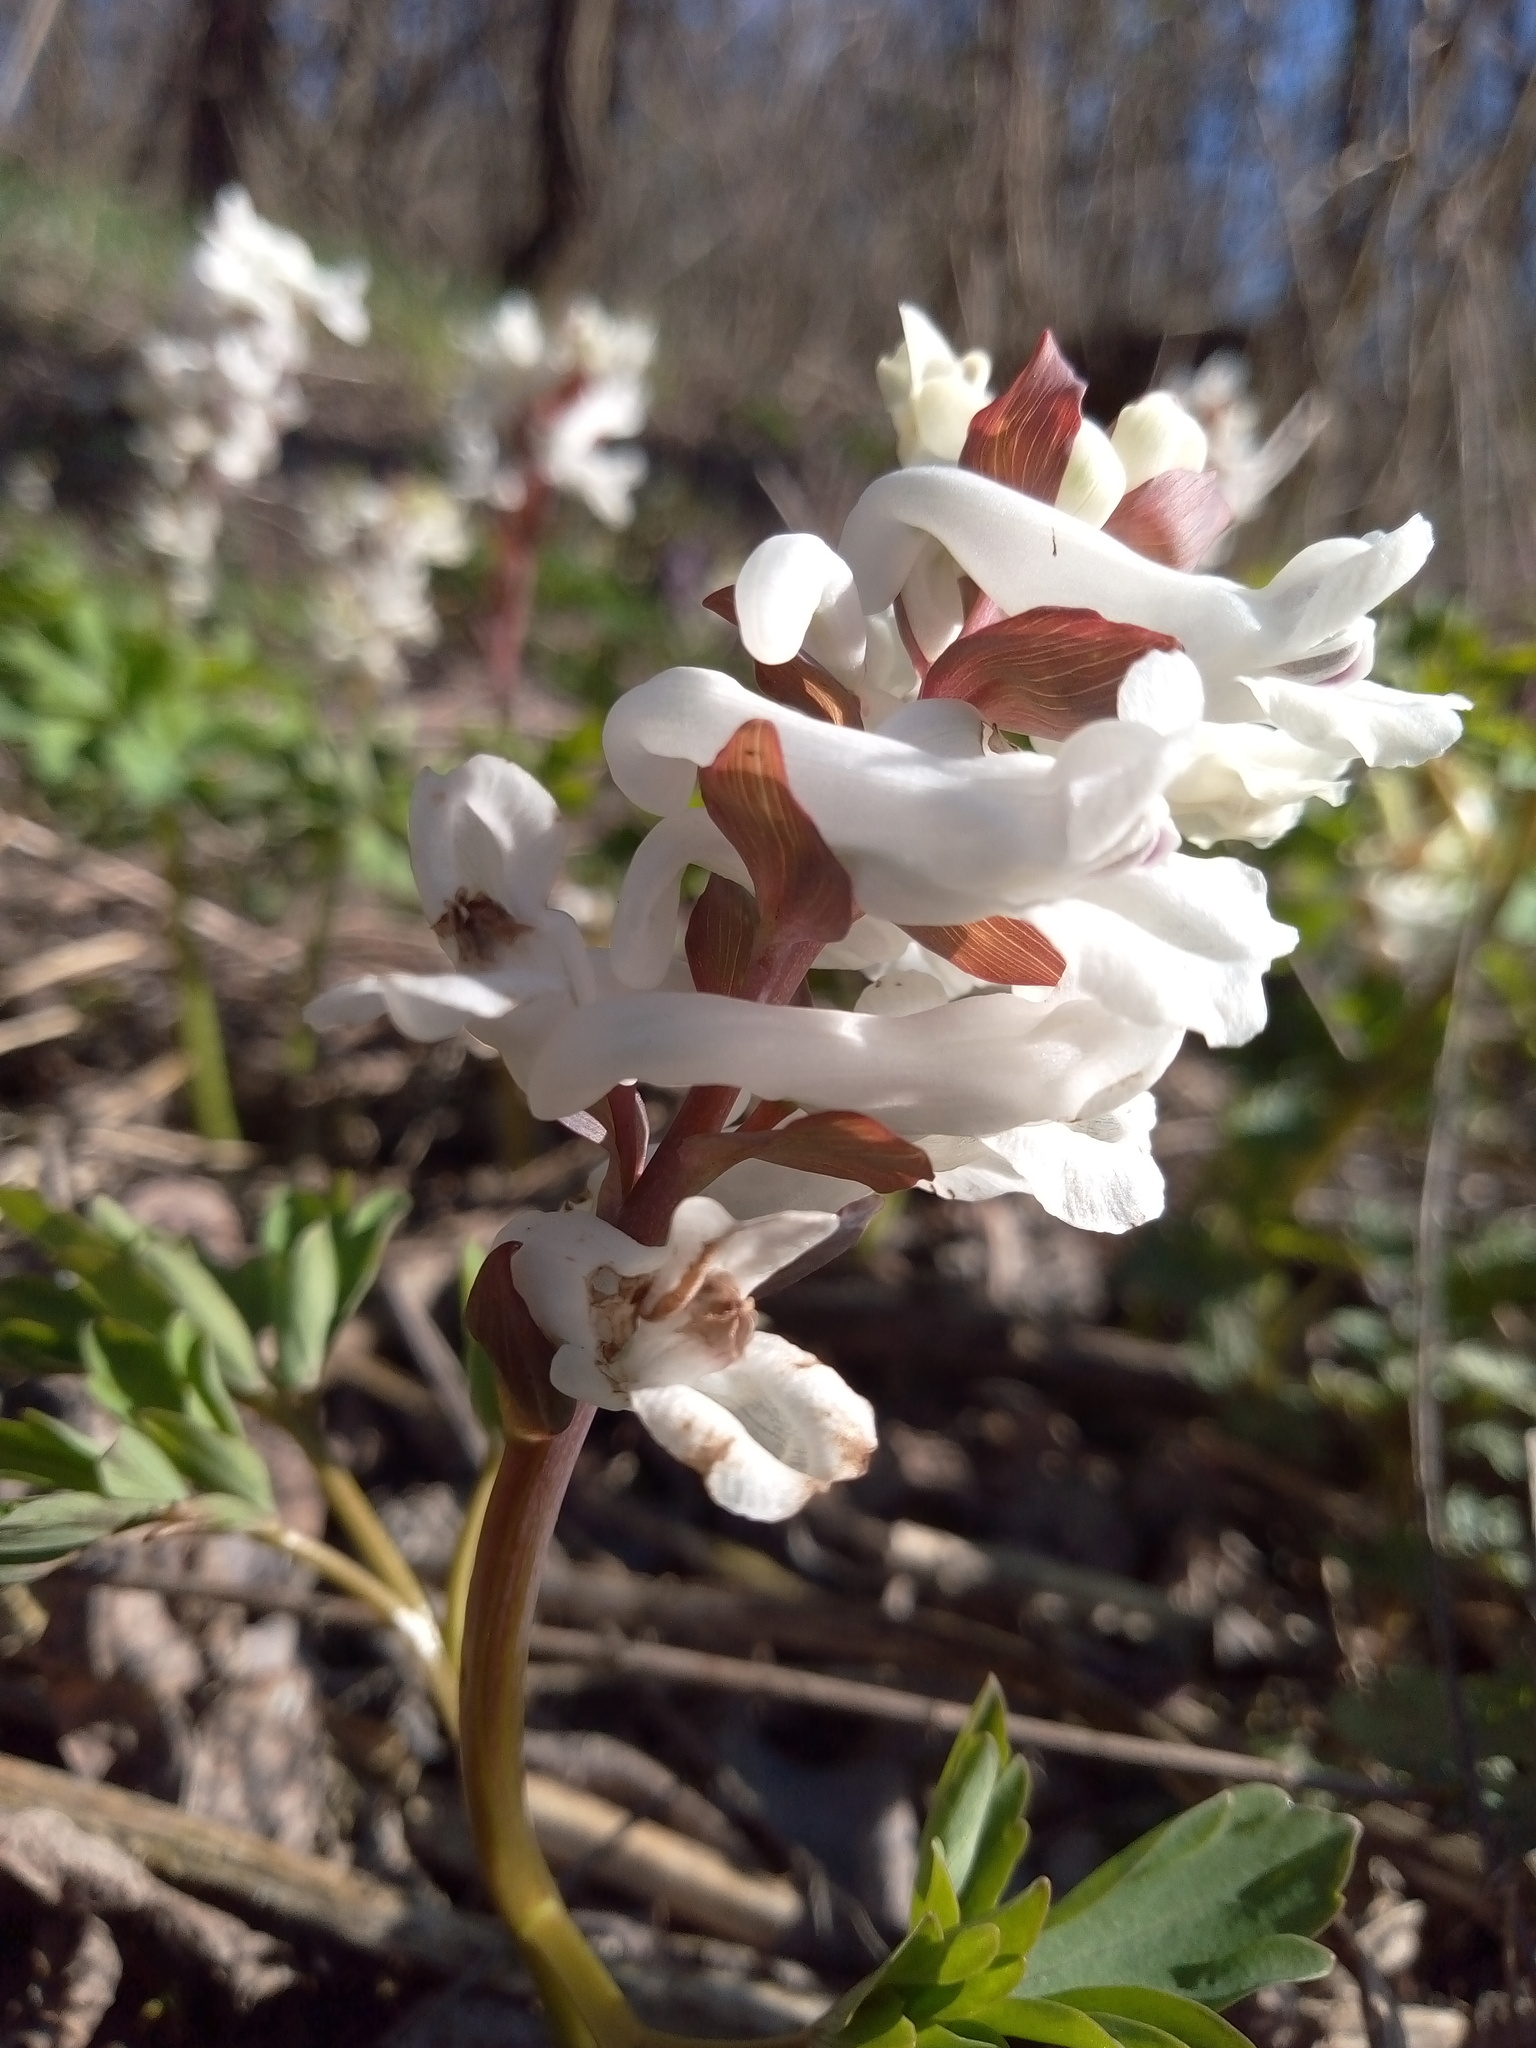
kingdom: Plantae
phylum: Tracheophyta
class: Magnoliopsida
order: Ranunculales
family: Papaveraceae
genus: Corydalis
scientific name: Corydalis cava
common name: Hollowroot
